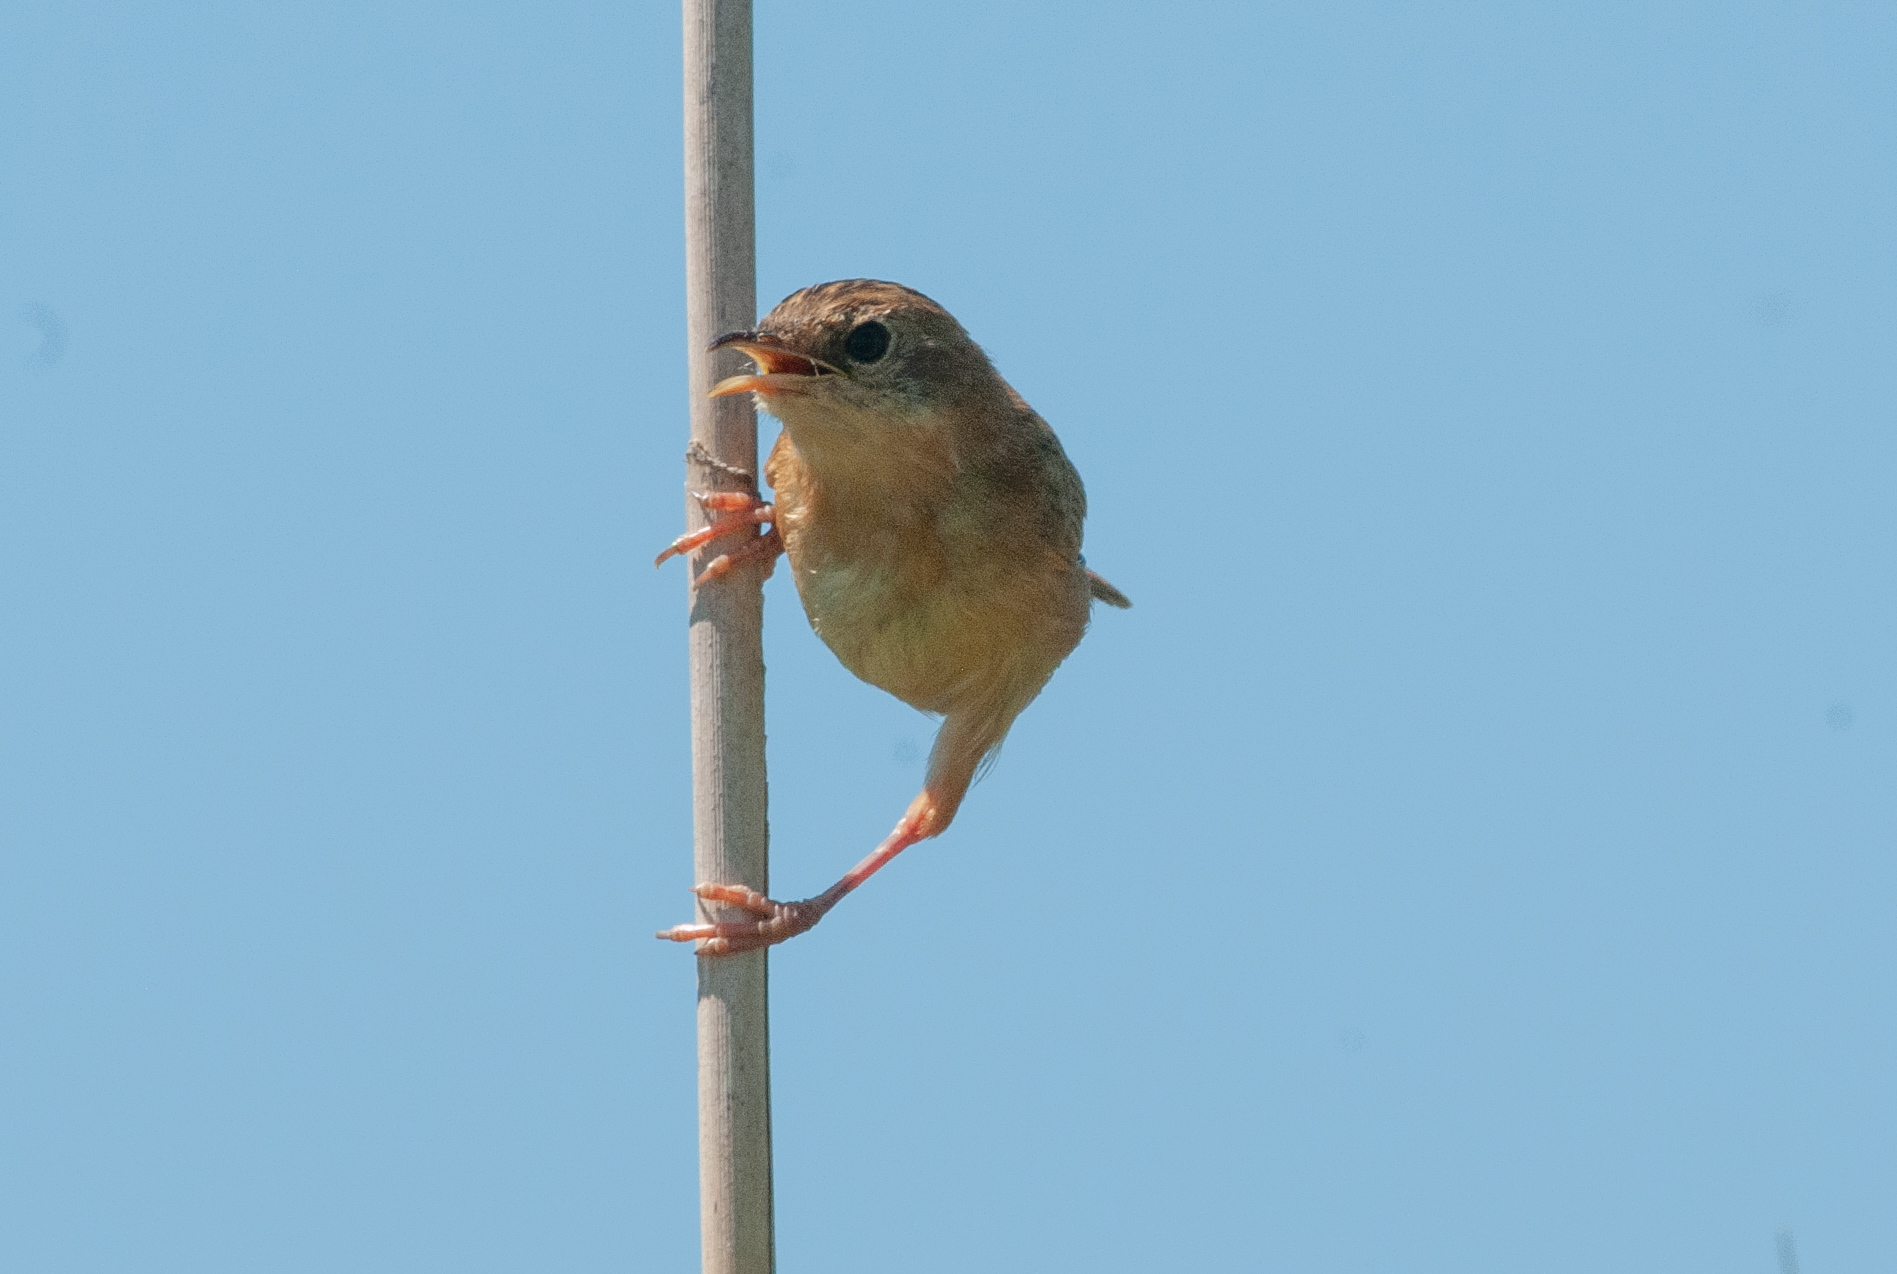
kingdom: Animalia
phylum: Chordata
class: Aves
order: Passeriformes
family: Cisticolidae
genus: Cisticola
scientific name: Cisticola exilis
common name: Golden-headed cisticola
